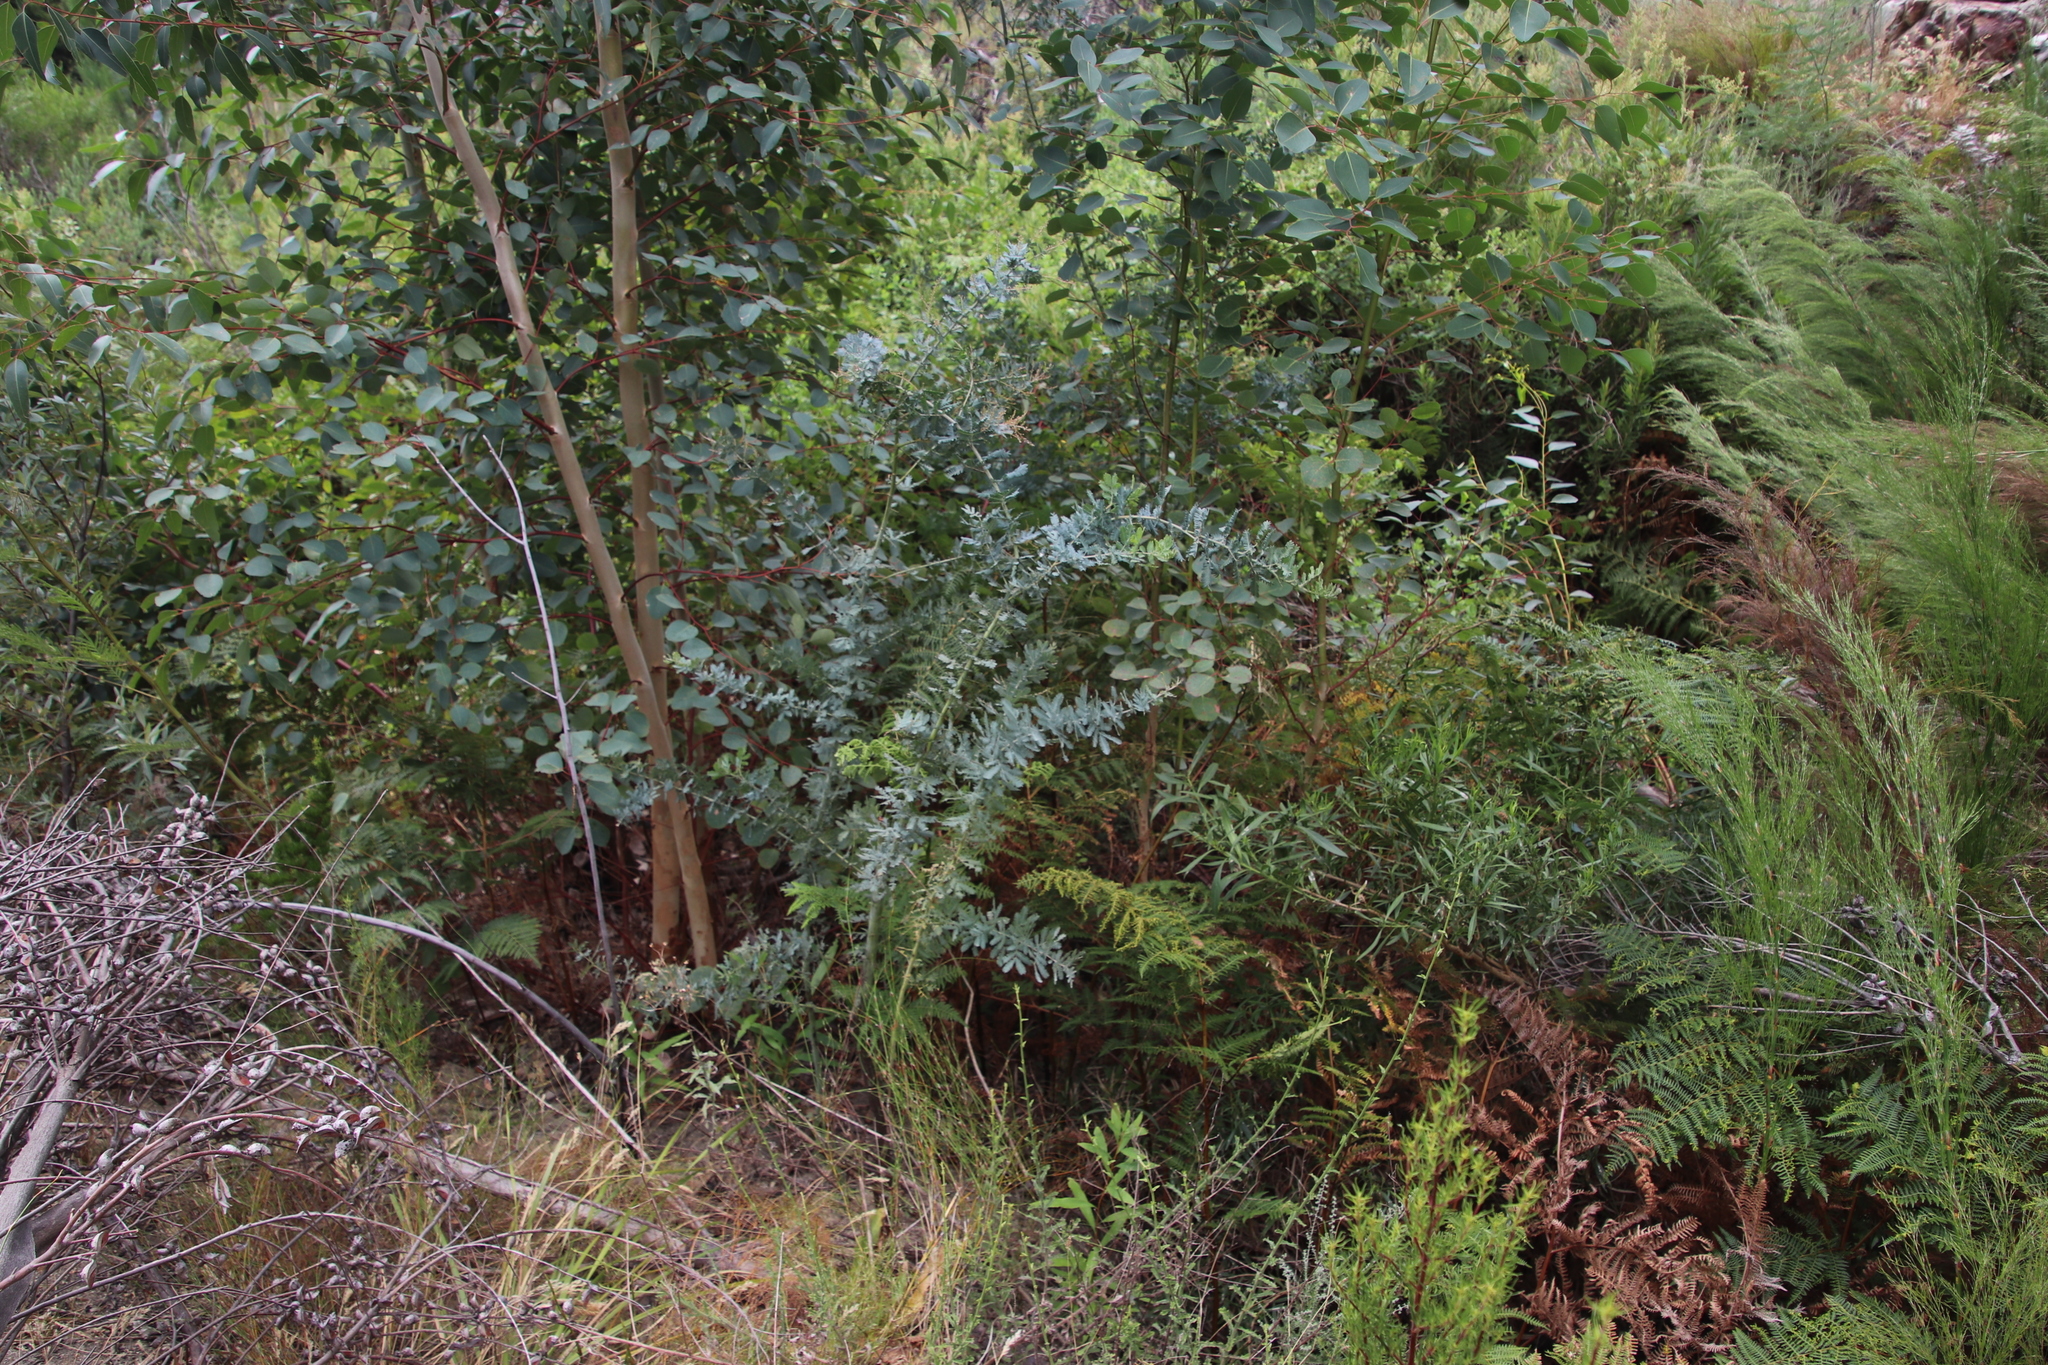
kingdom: Plantae
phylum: Tracheophyta
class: Magnoliopsida
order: Fabales
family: Fabaceae
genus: Acacia
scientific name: Acacia baileyana
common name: Cootamundra wattle
